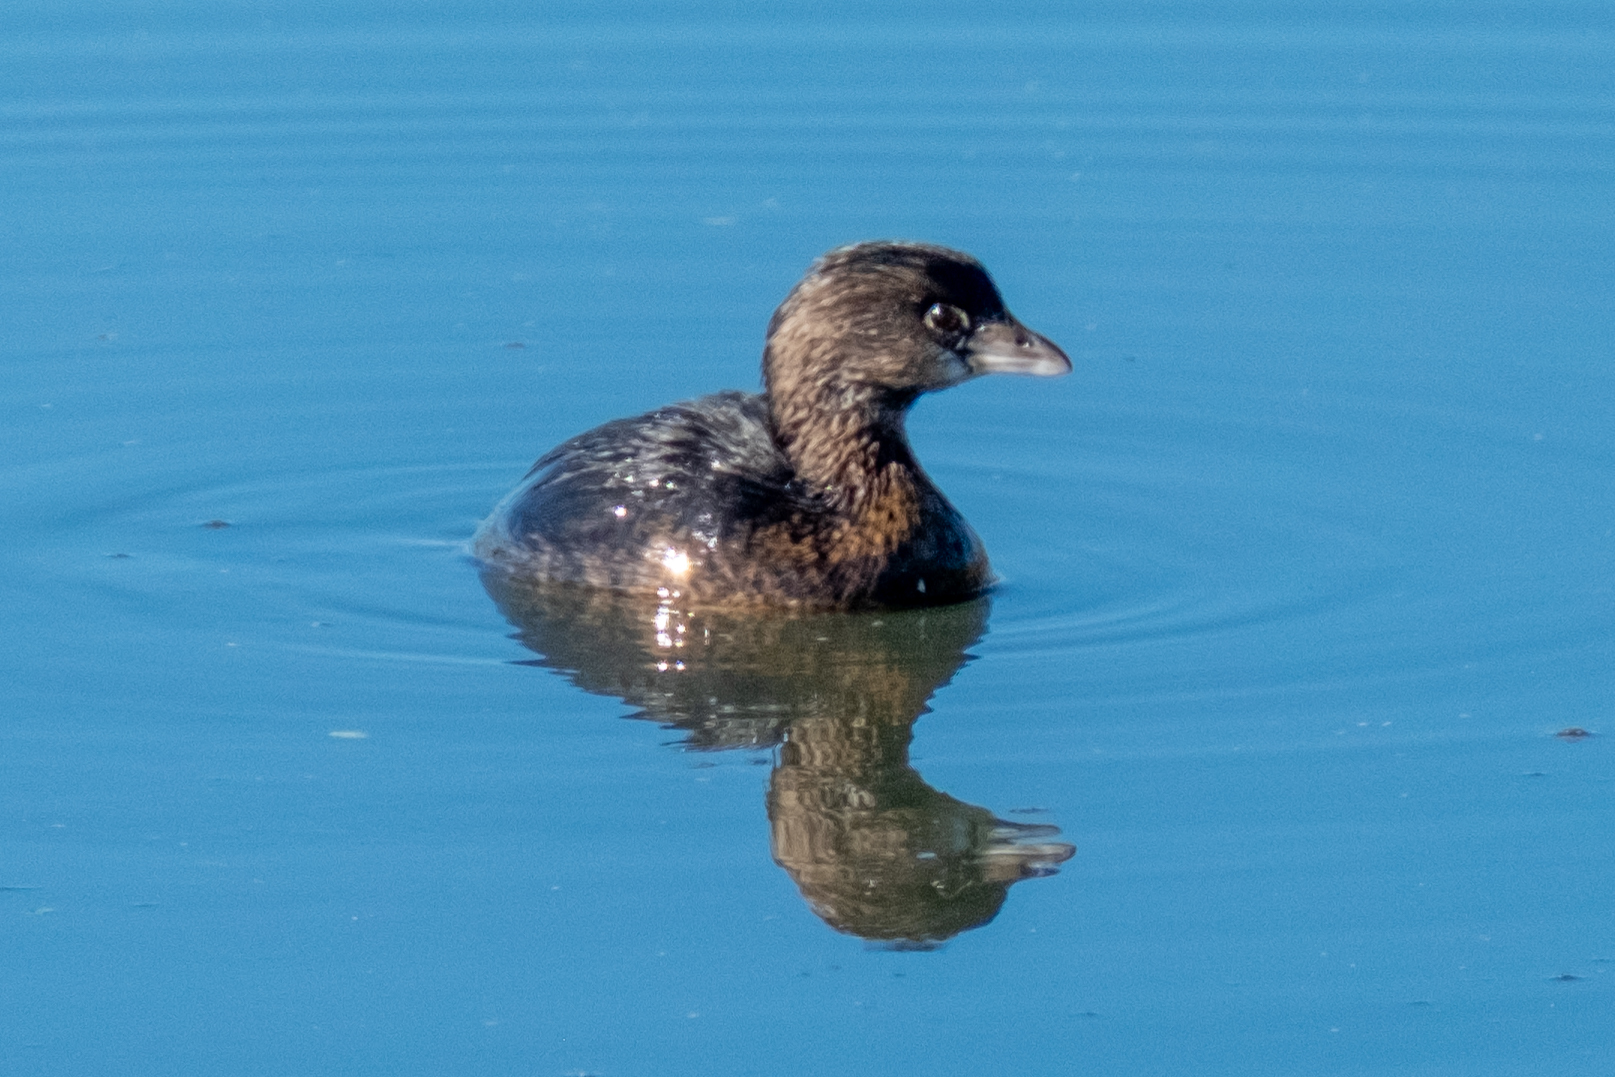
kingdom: Animalia
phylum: Chordata
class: Aves
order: Podicipediformes
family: Podicipedidae
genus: Podilymbus
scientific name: Podilymbus podiceps
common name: Pied-billed grebe
